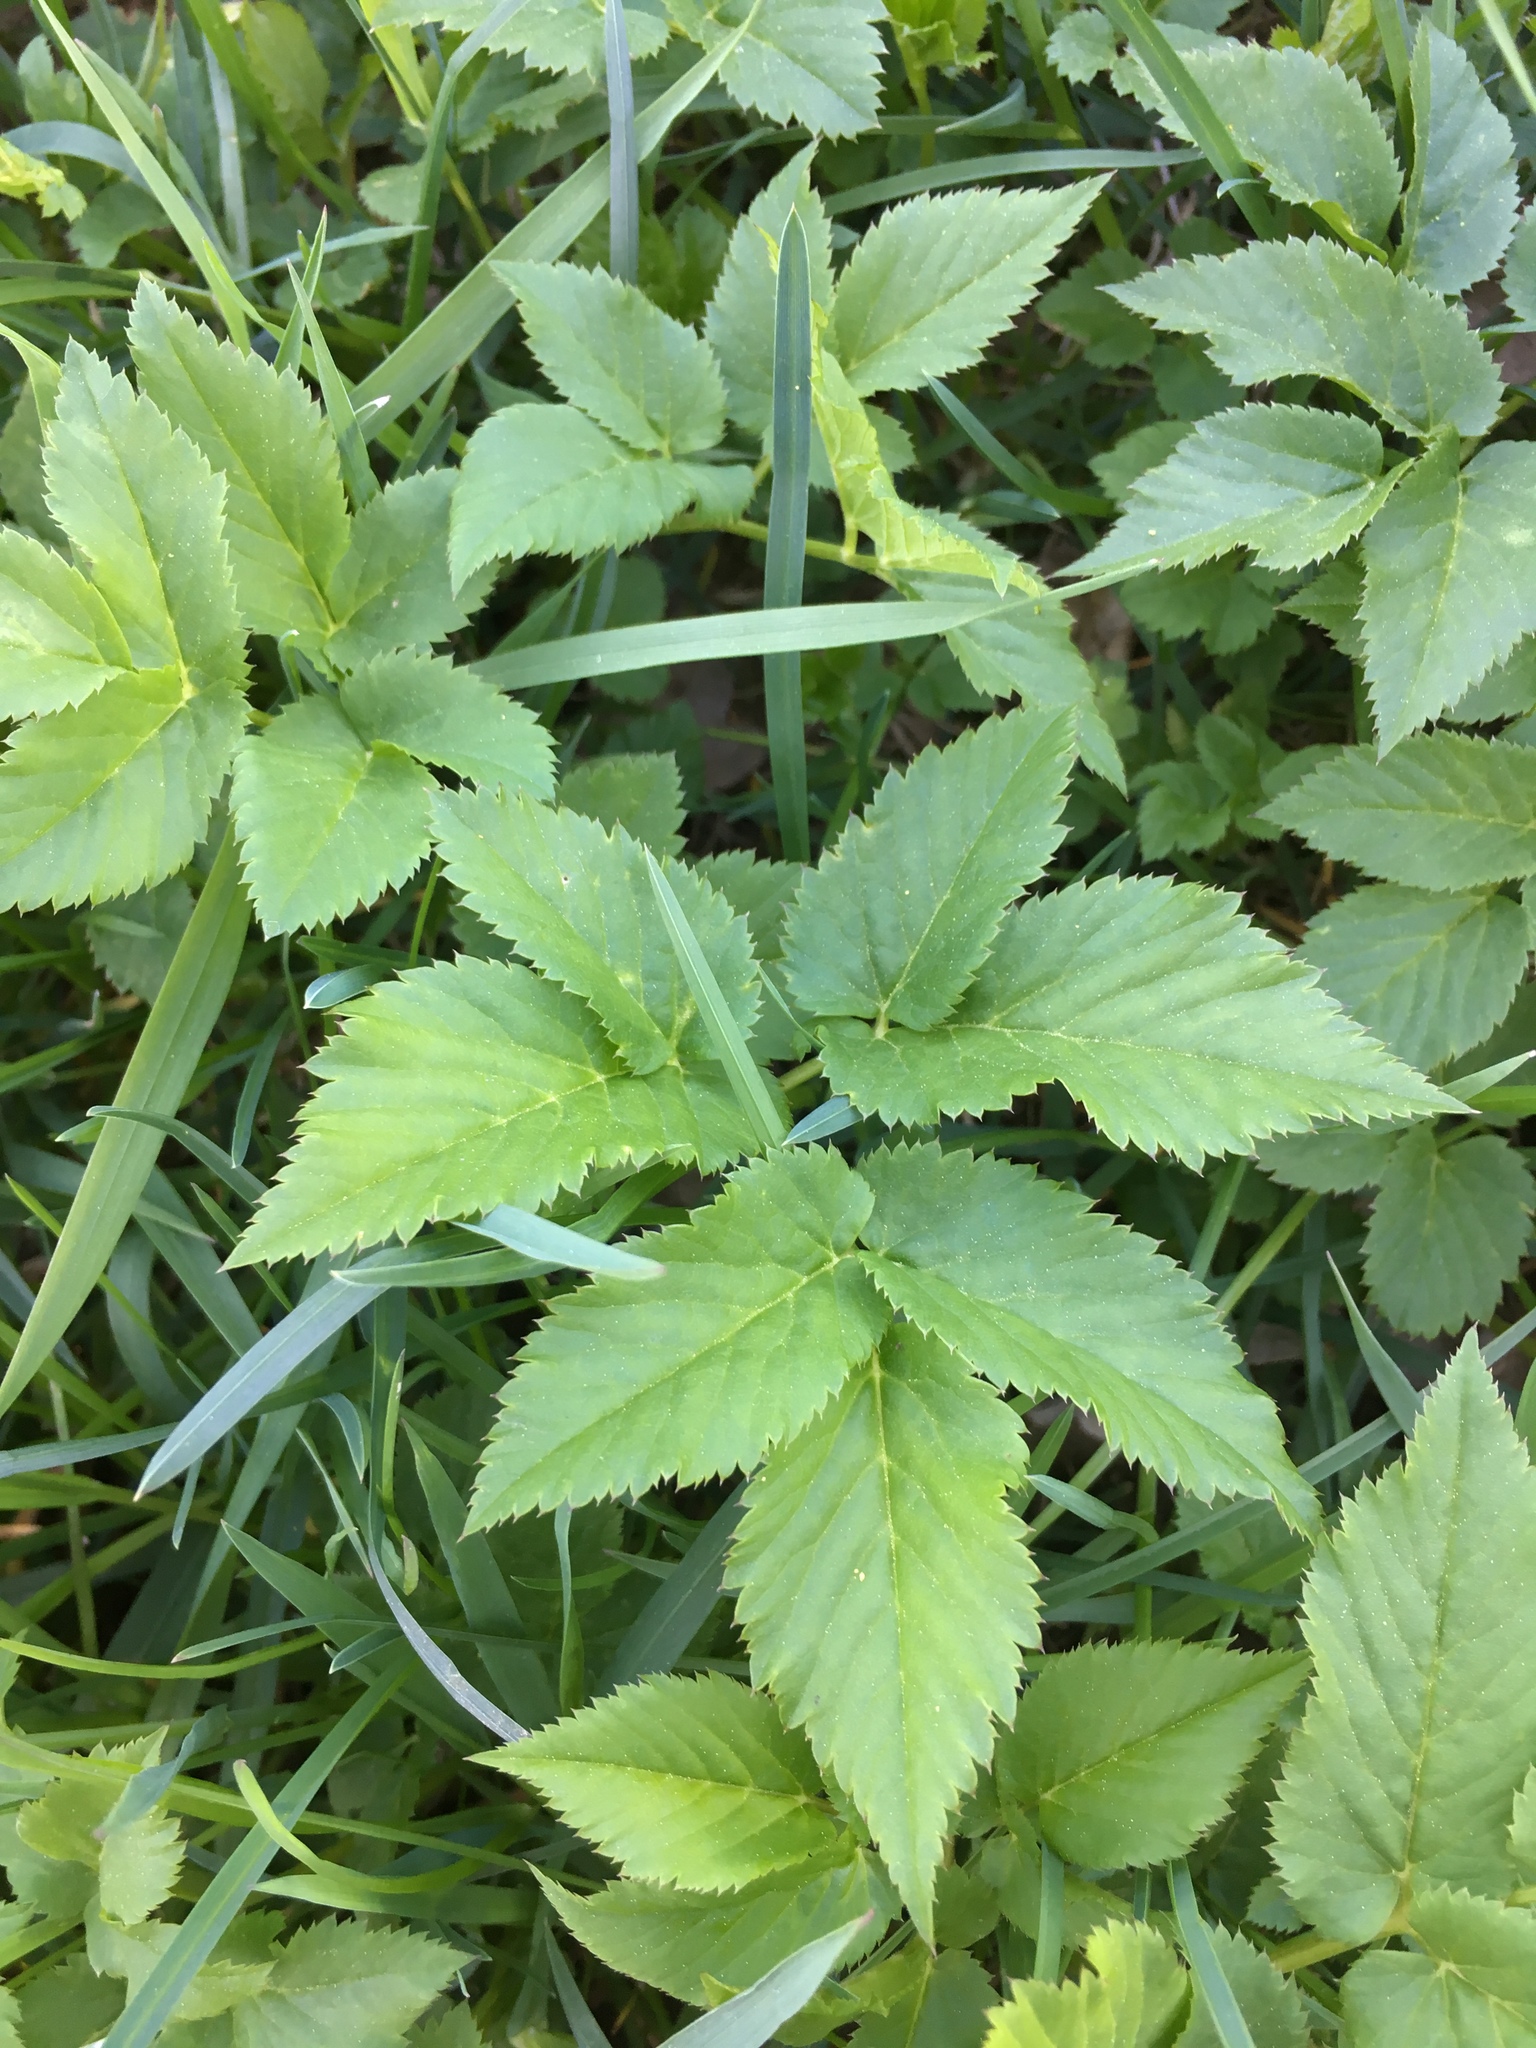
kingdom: Plantae
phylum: Tracheophyta
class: Magnoliopsida
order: Apiales
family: Apiaceae
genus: Aegopodium
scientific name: Aegopodium podagraria
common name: Ground-elder
